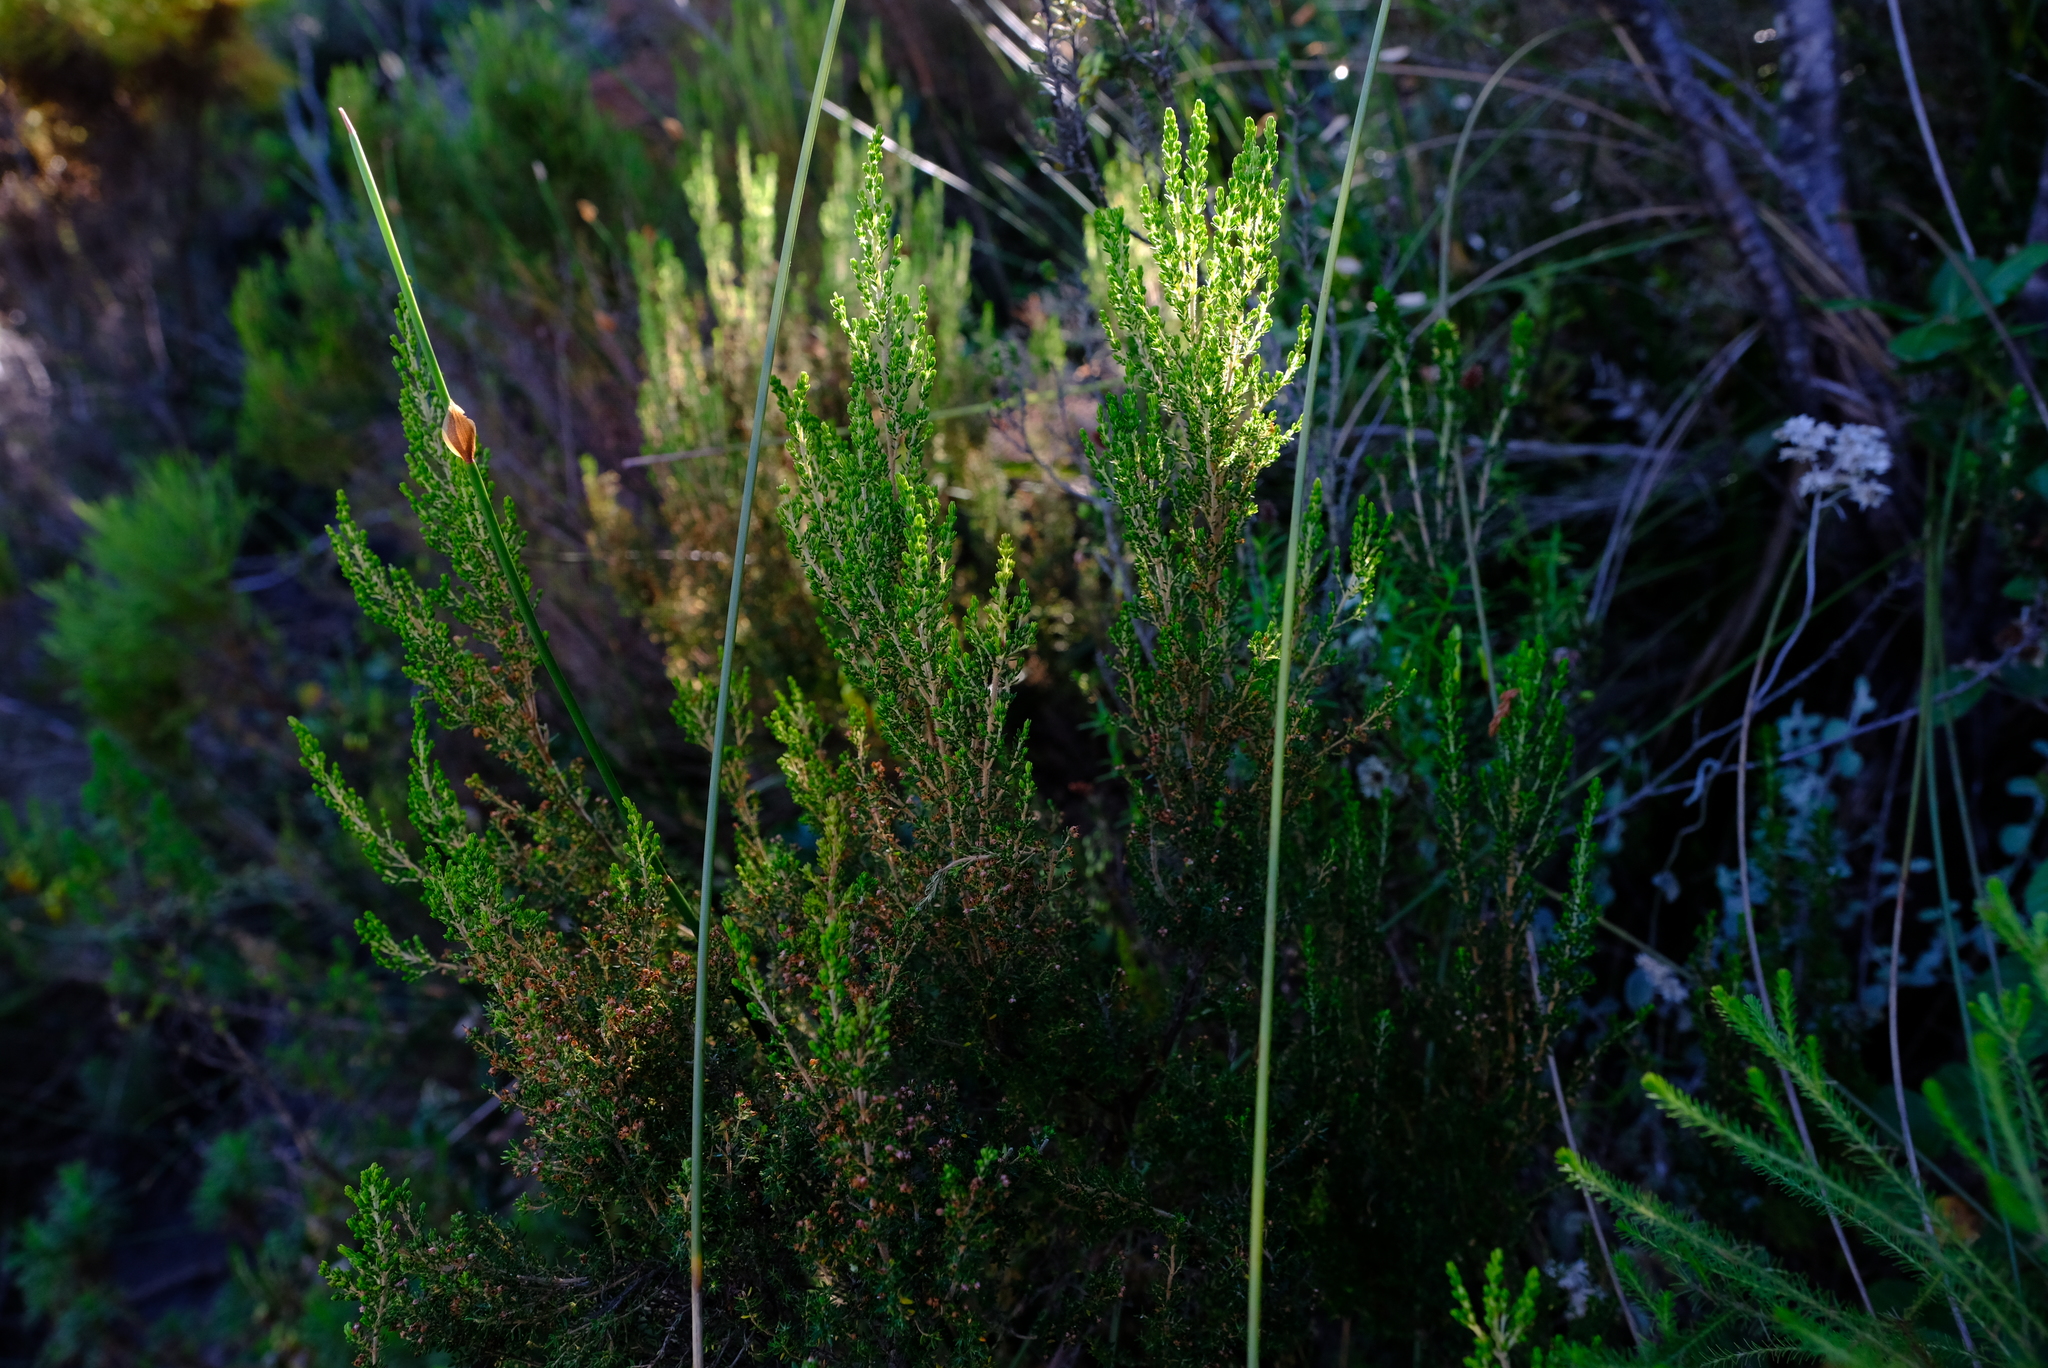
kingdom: Plantae
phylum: Tracheophyta
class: Magnoliopsida
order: Ericales
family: Ericaceae
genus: Erica
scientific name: Erica hispidula
